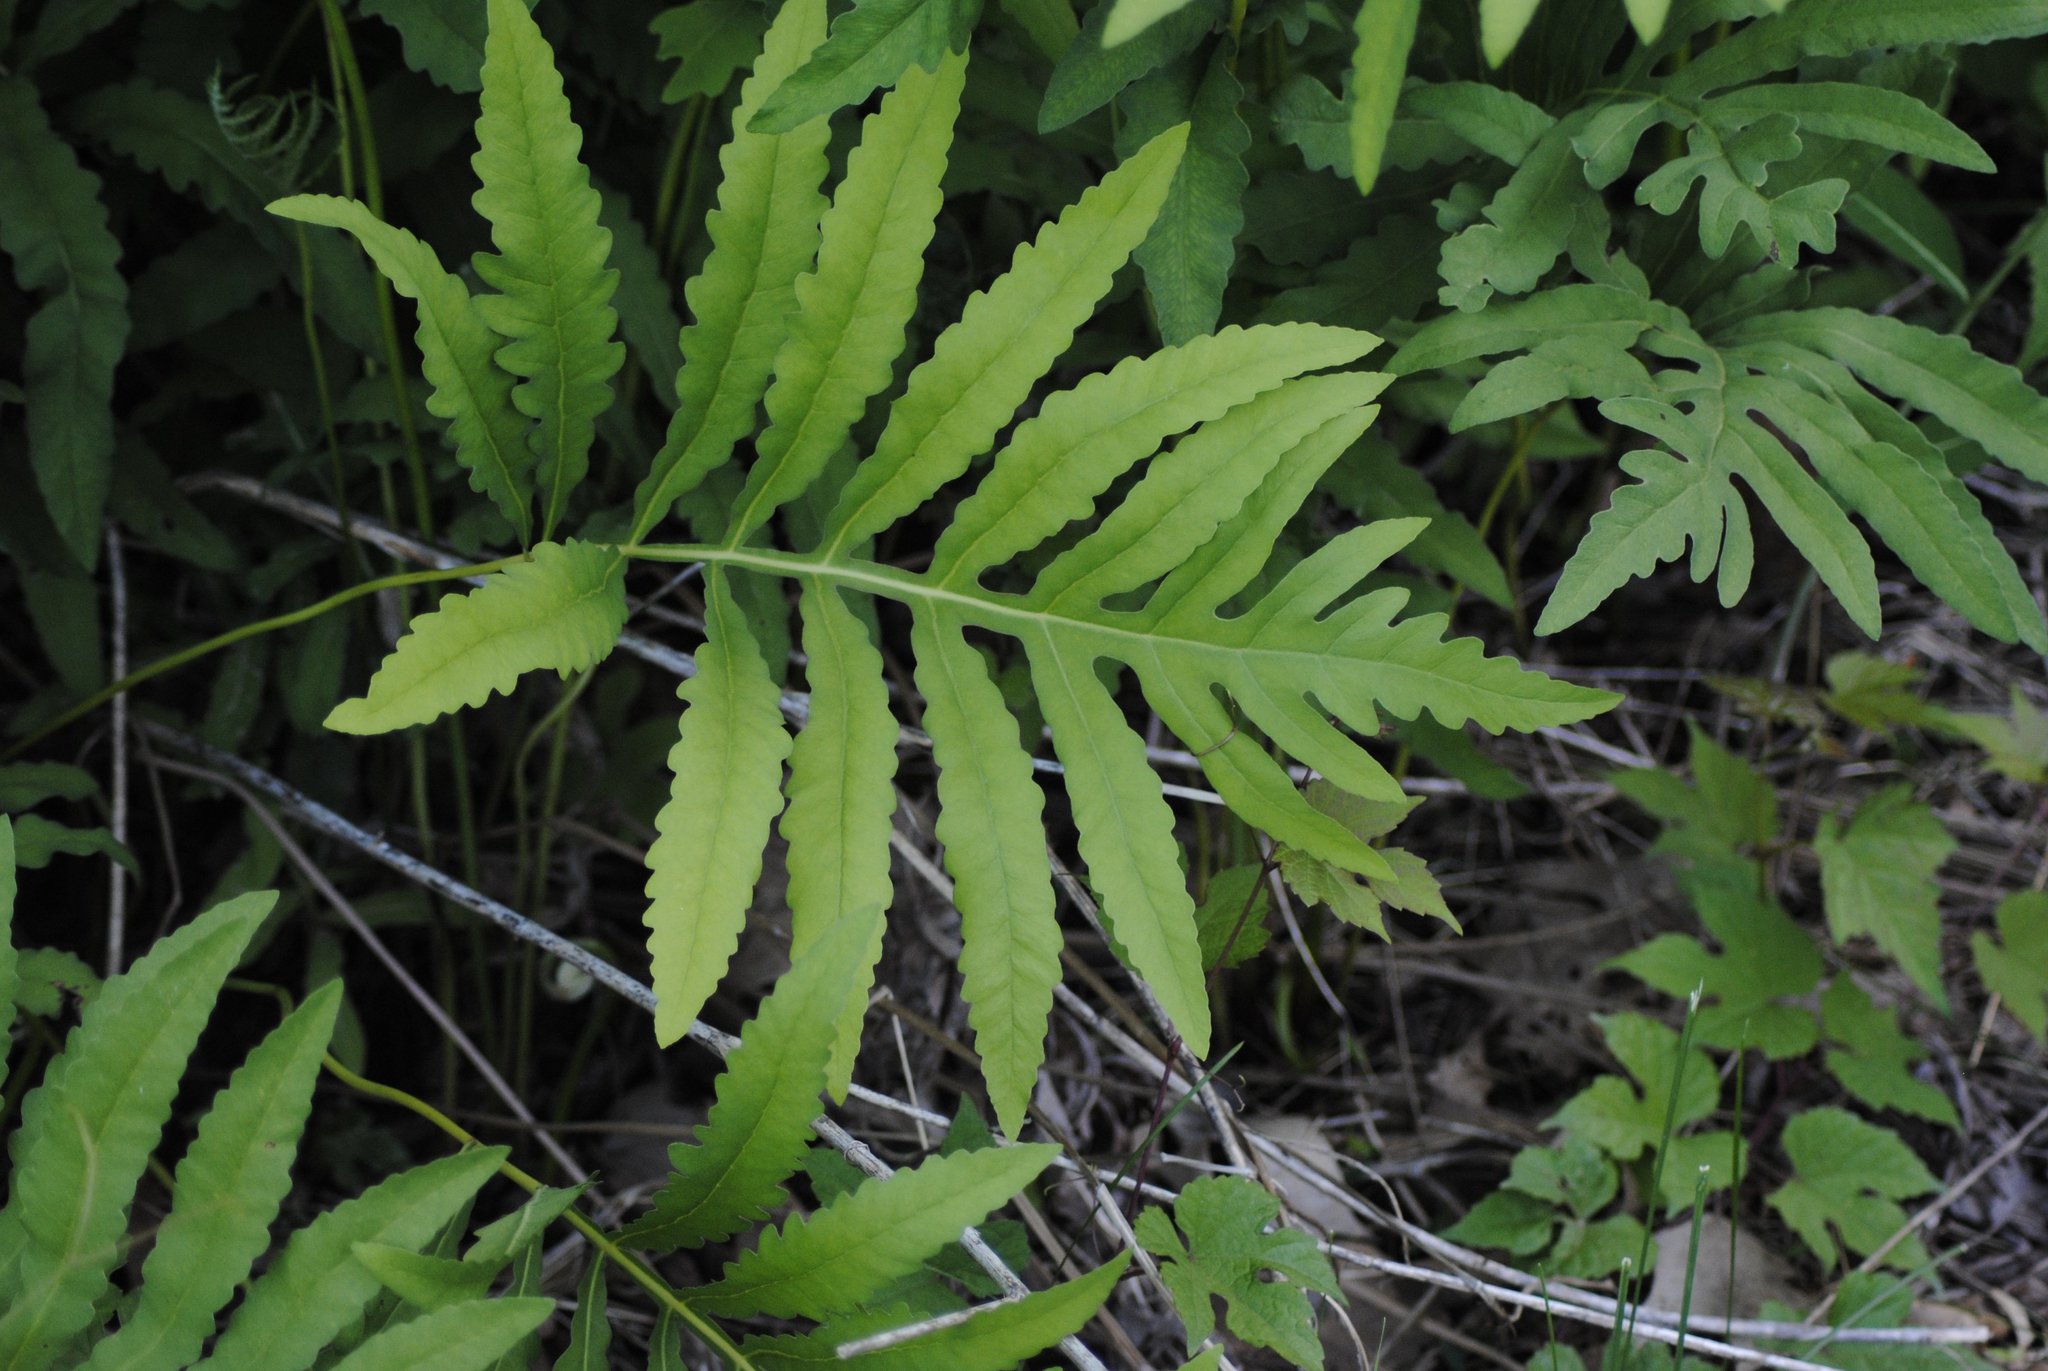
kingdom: Plantae
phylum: Tracheophyta
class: Polypodiopsida
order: Polypodiales
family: Onocleaceae
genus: Onoclea
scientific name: Onoclea sensibilis
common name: Sensitive fern
